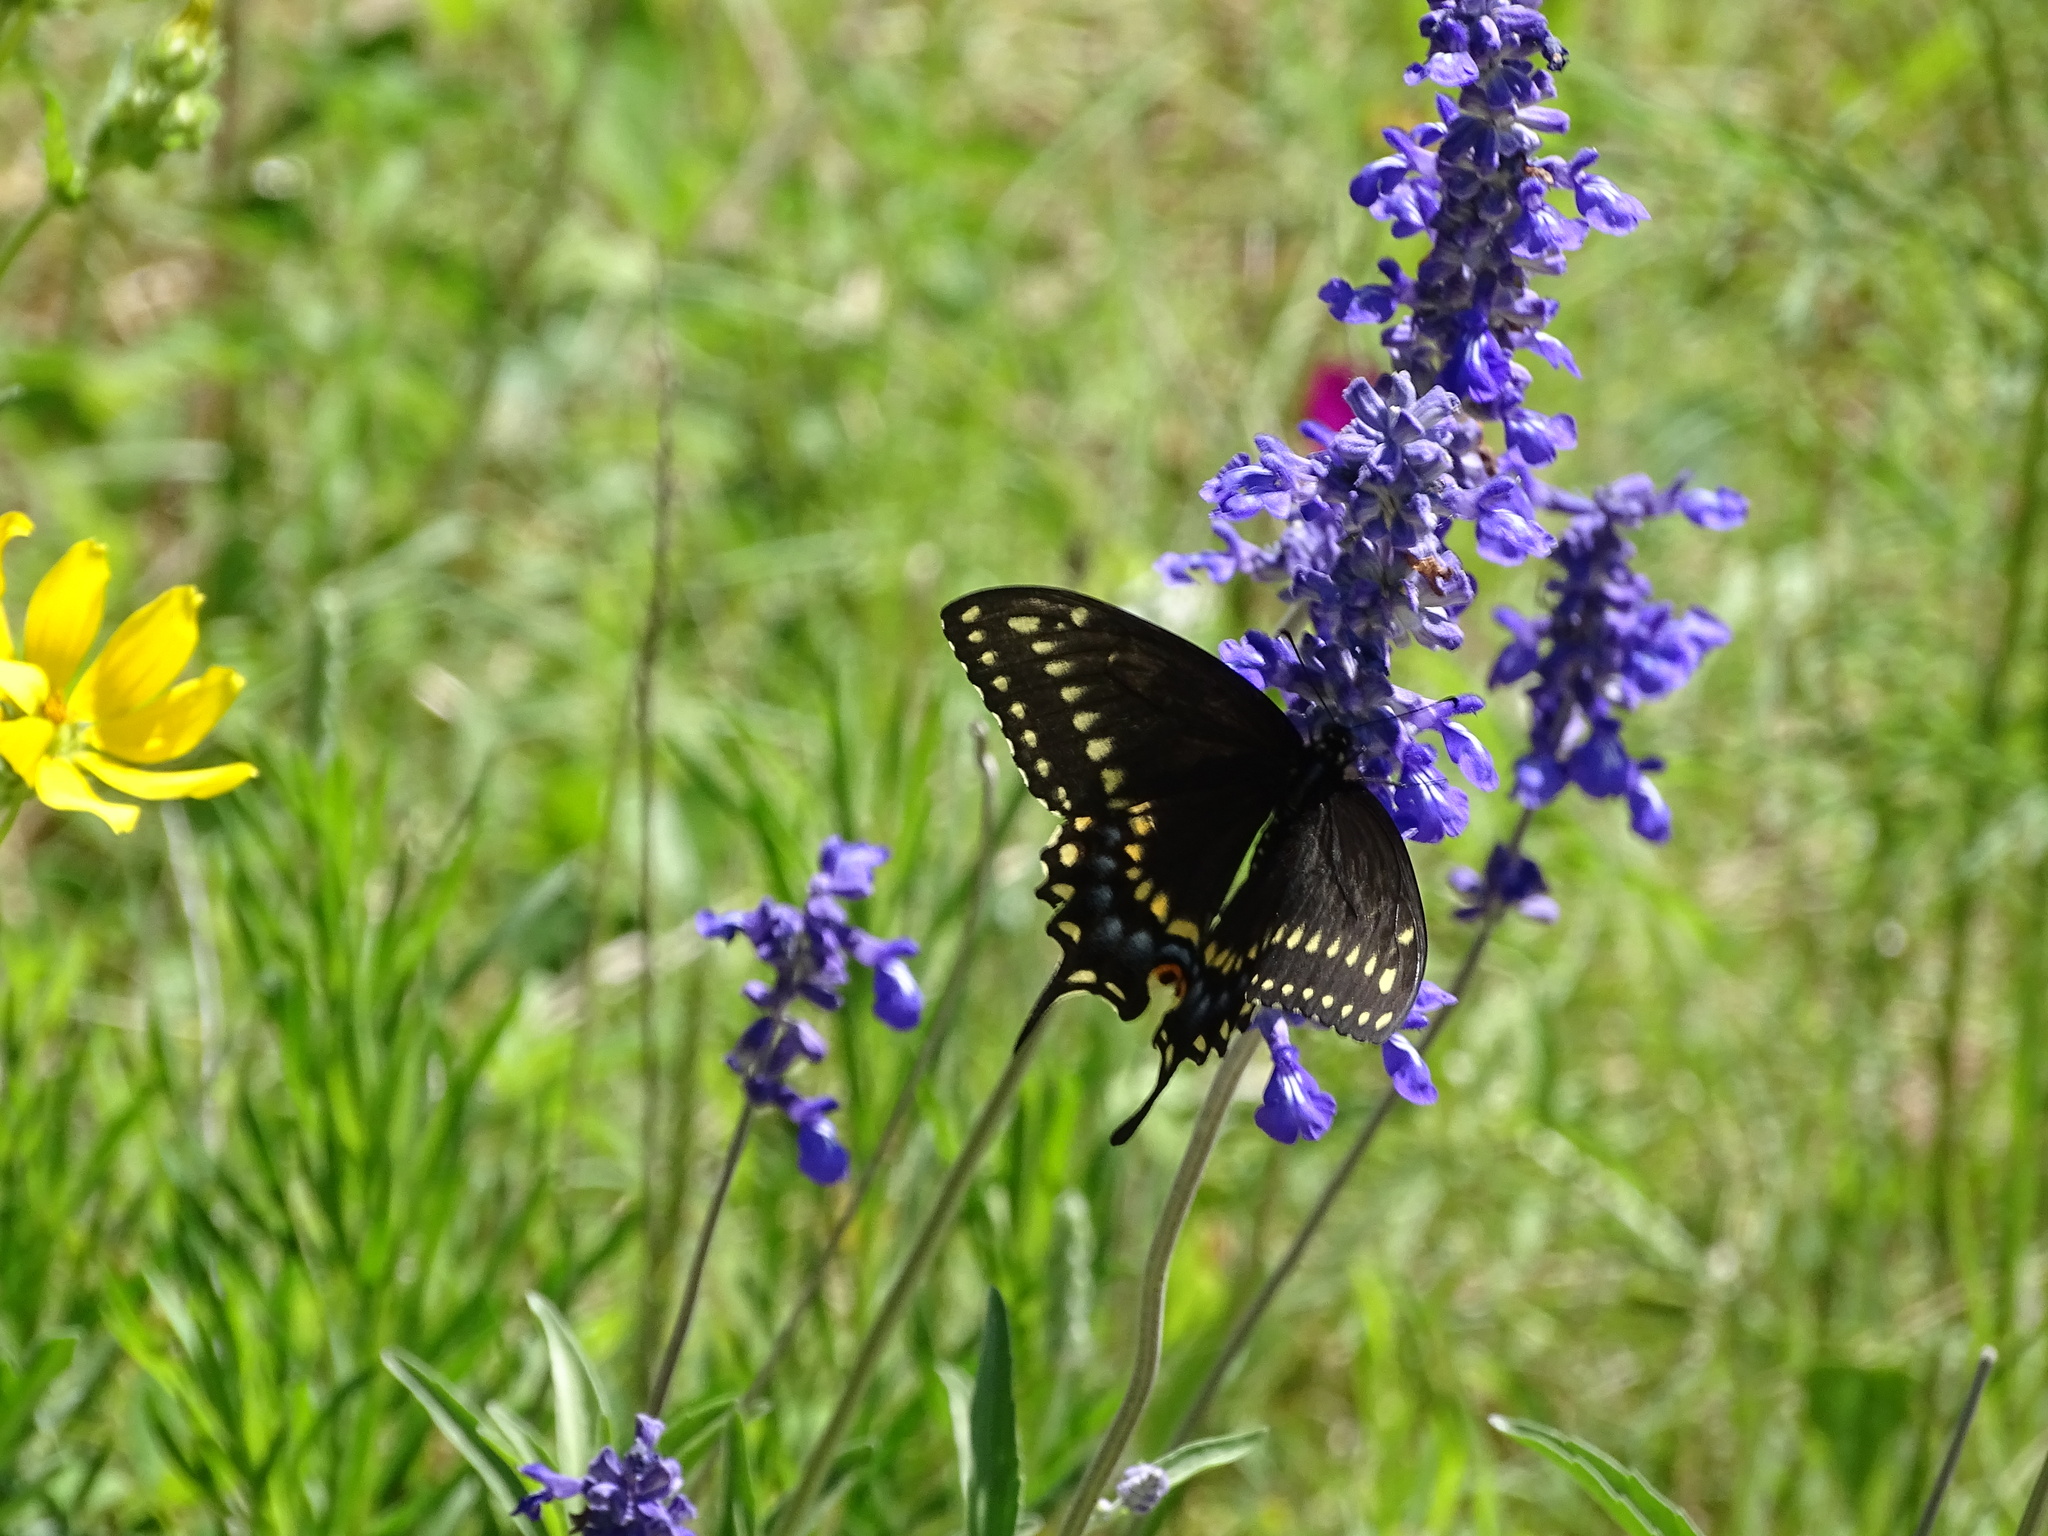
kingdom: Animalia
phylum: Arthropoda
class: Insecta
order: Lepidoptera
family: Papilionidae
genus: Papilio
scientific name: Papilio polyxenes
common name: Black swallowtail
